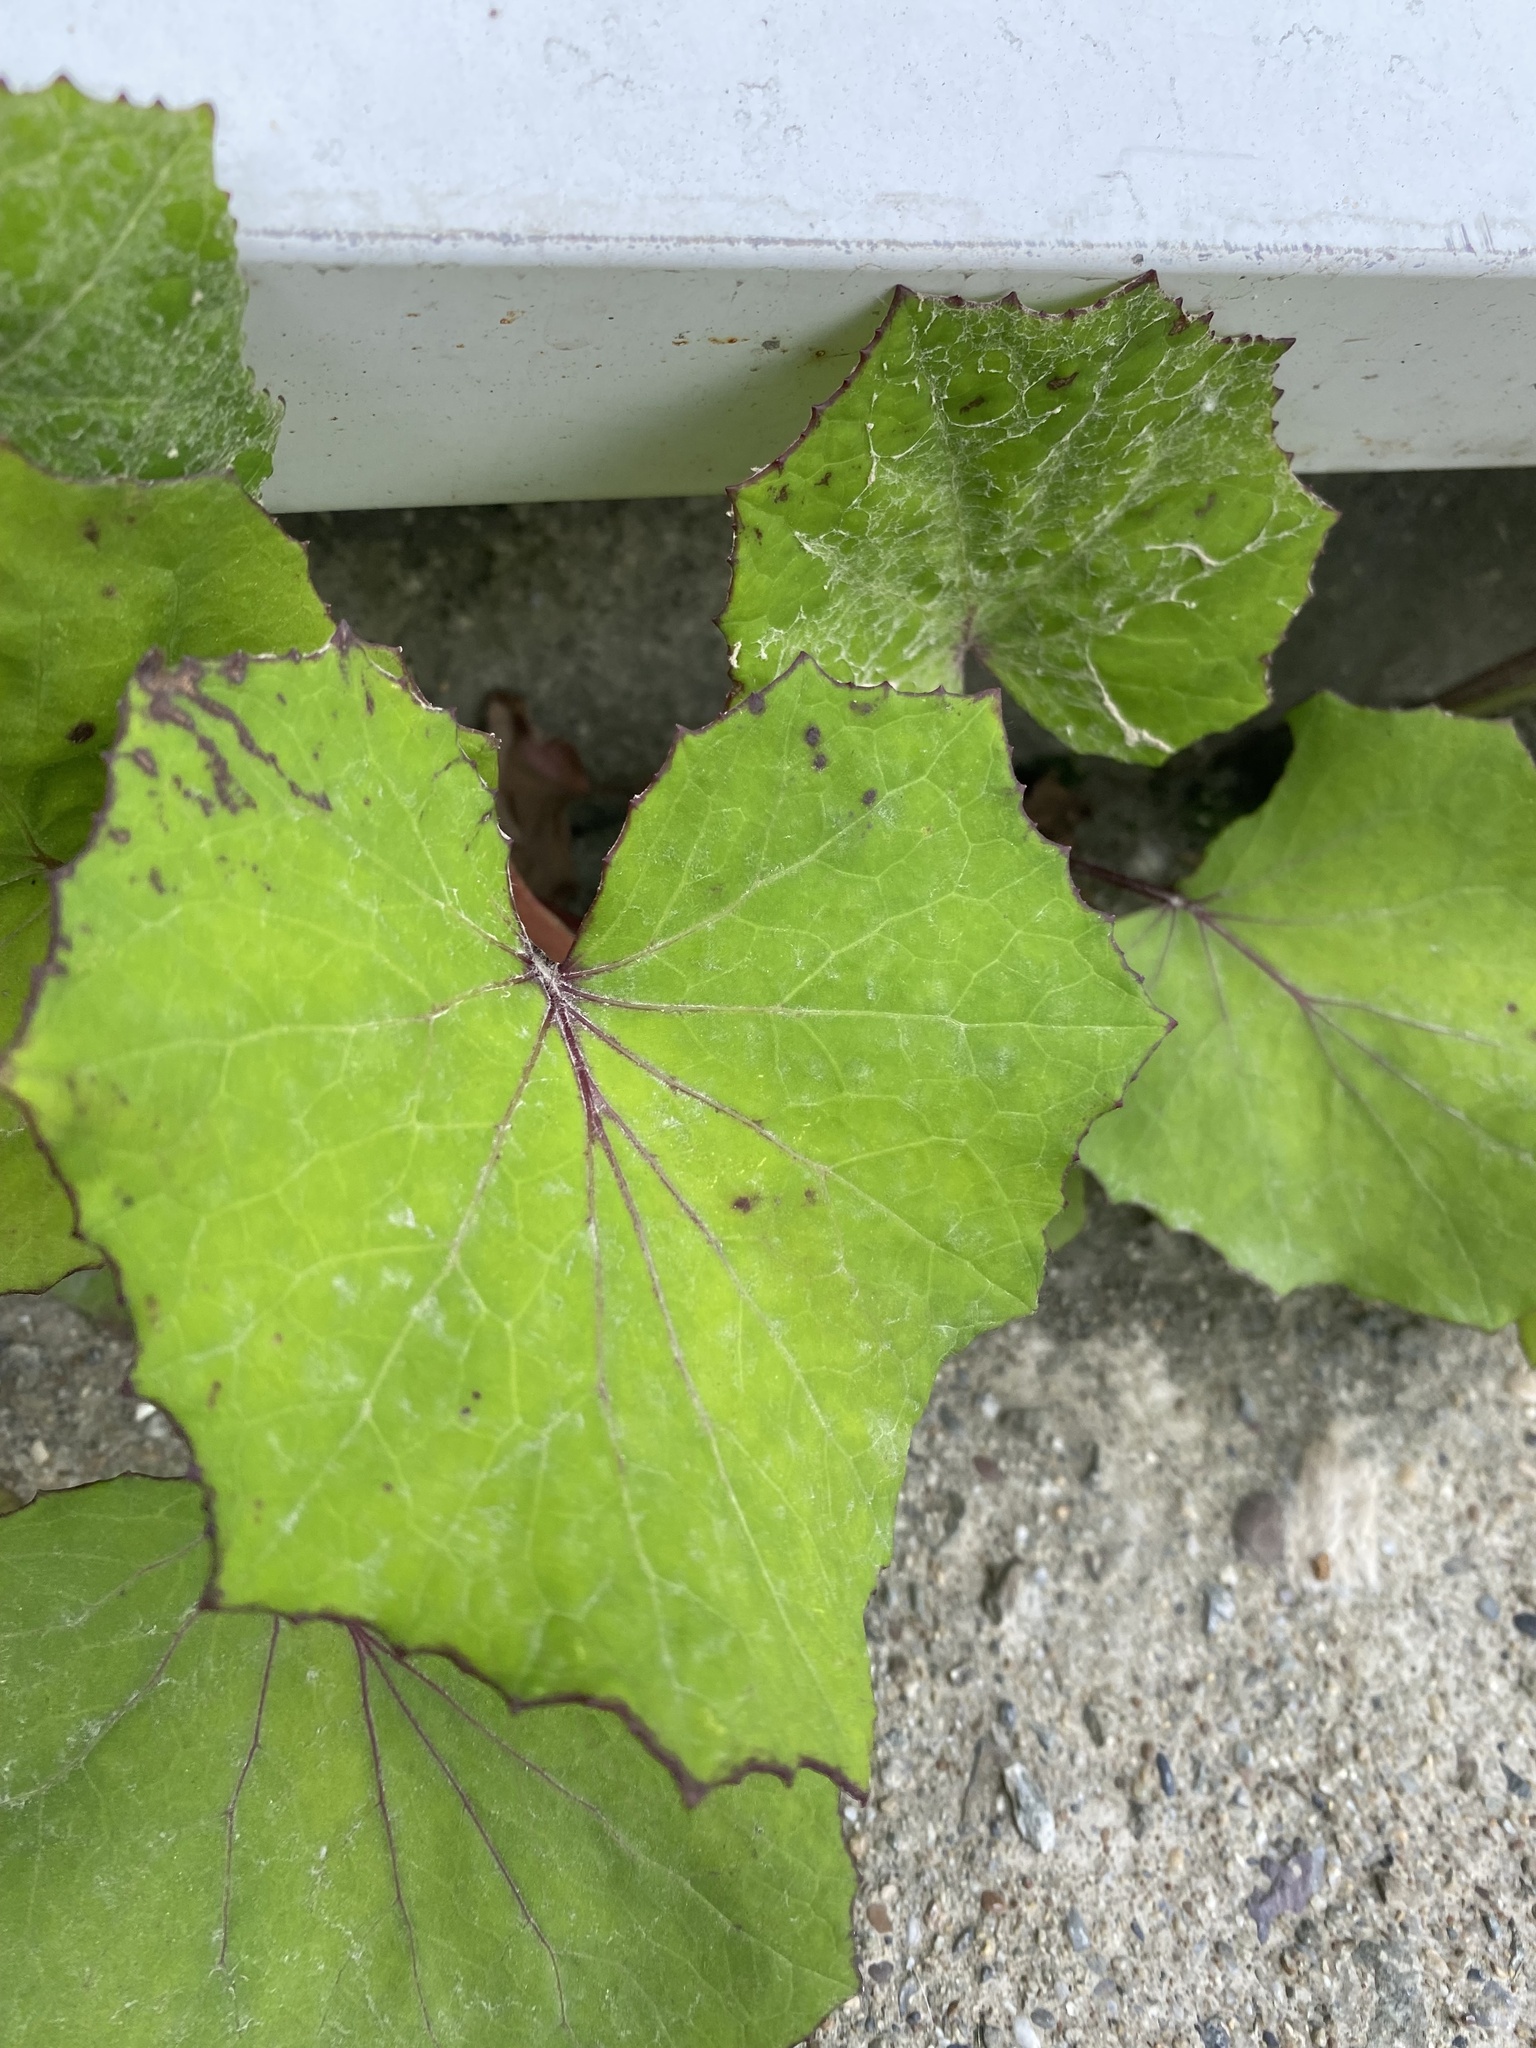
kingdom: Plantae
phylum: Tracheophyta
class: Magnoliopsida
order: Asterales
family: Asteraceae
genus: Tussilago
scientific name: Tussilago farfara
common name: Coltsfoot
